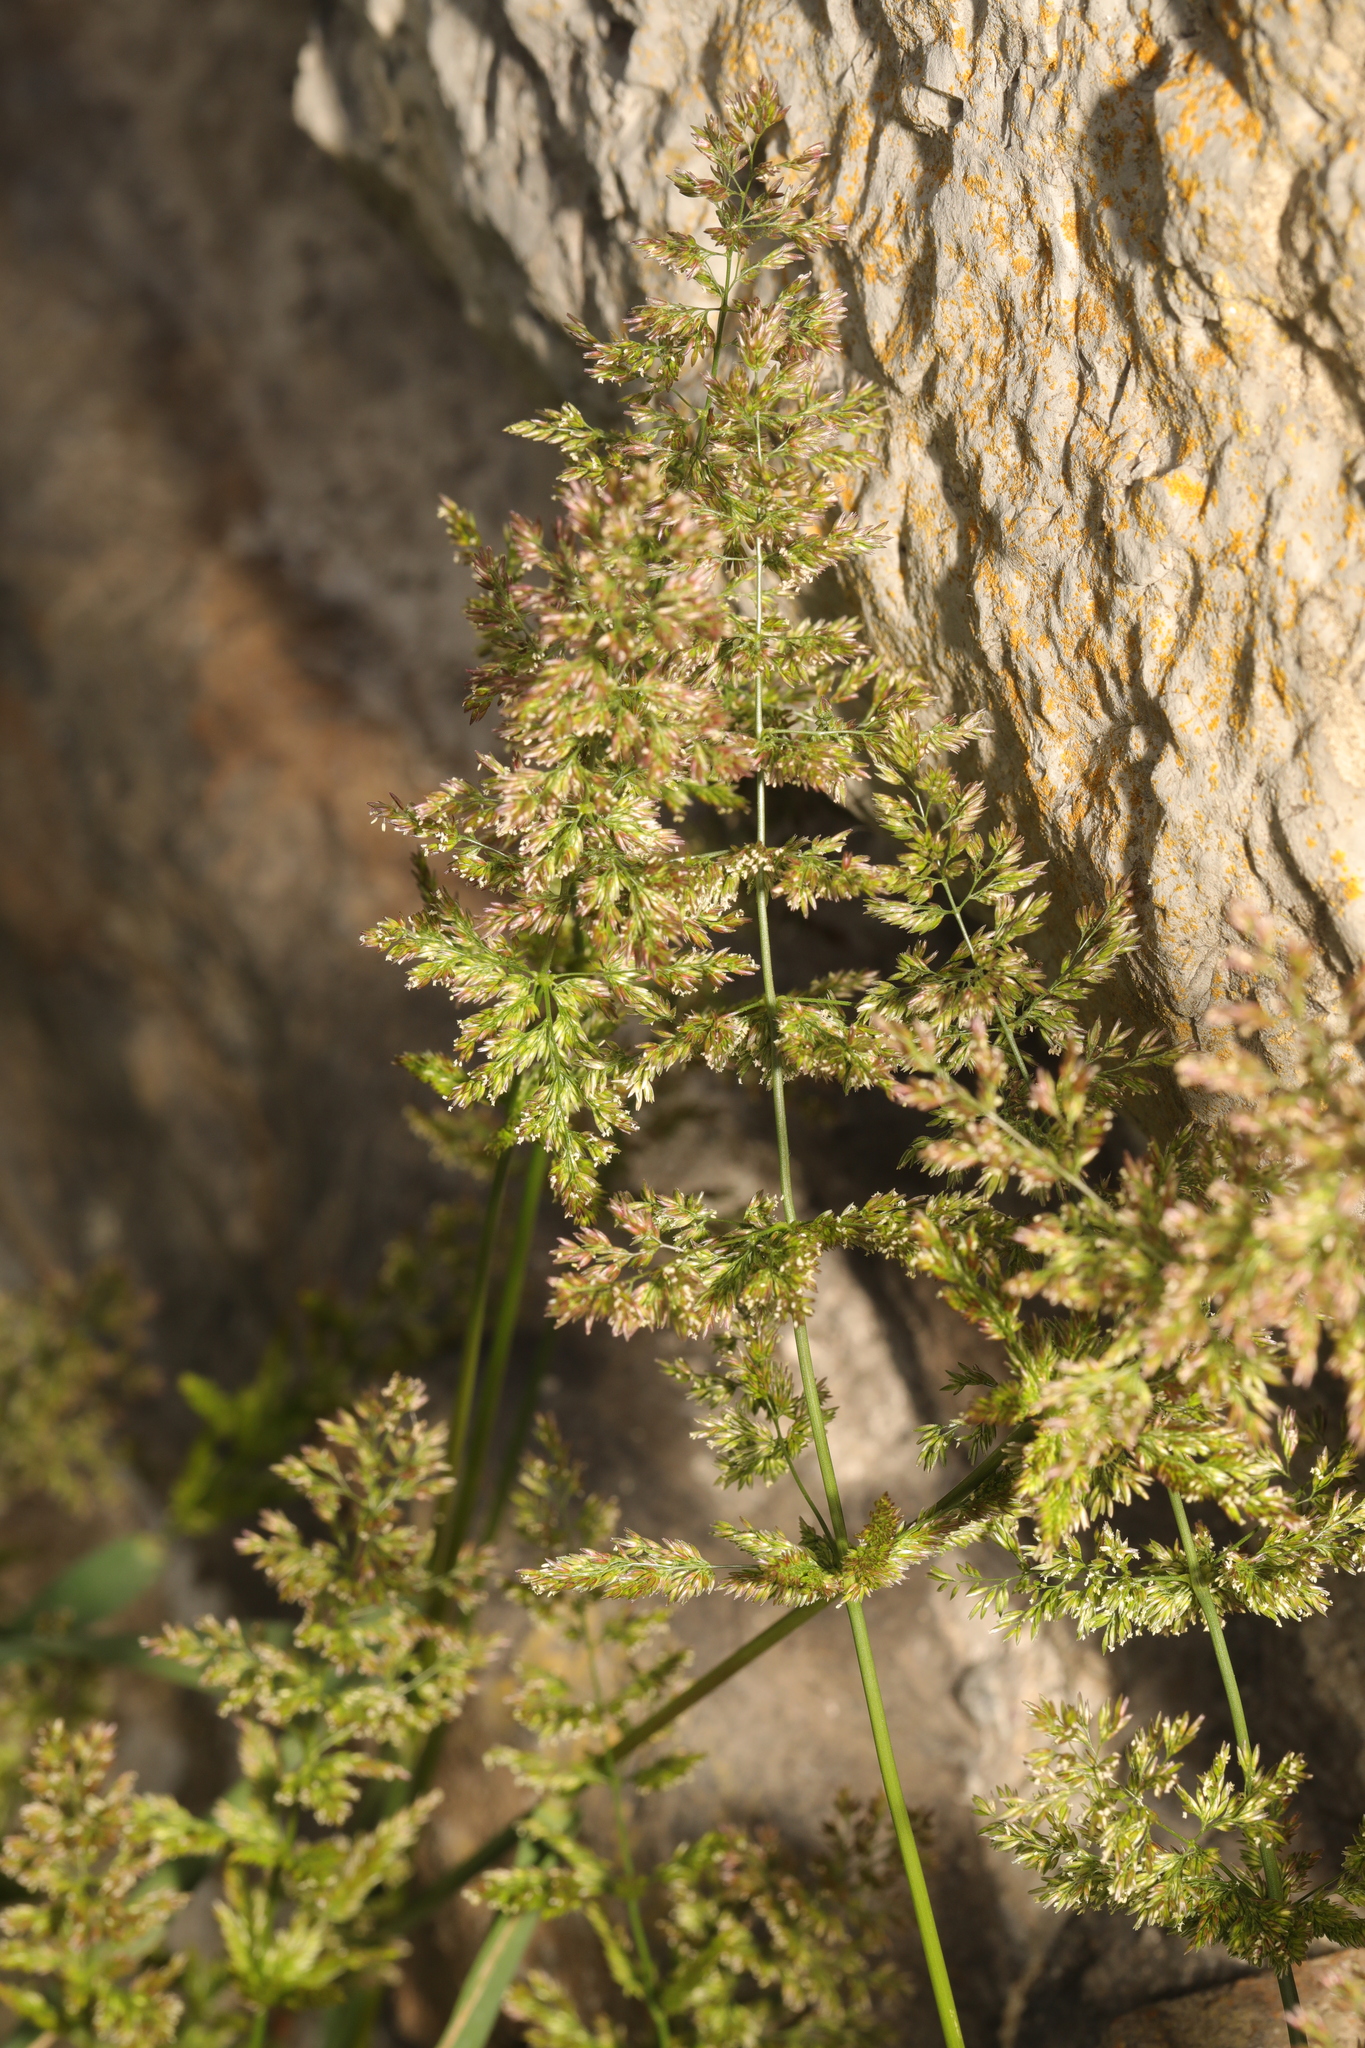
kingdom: Plantae
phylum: Tracheophyta
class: Liliopsida
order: Poales
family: Poaceae
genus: Polypogon
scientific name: Polypogon viridis
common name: Water bent
